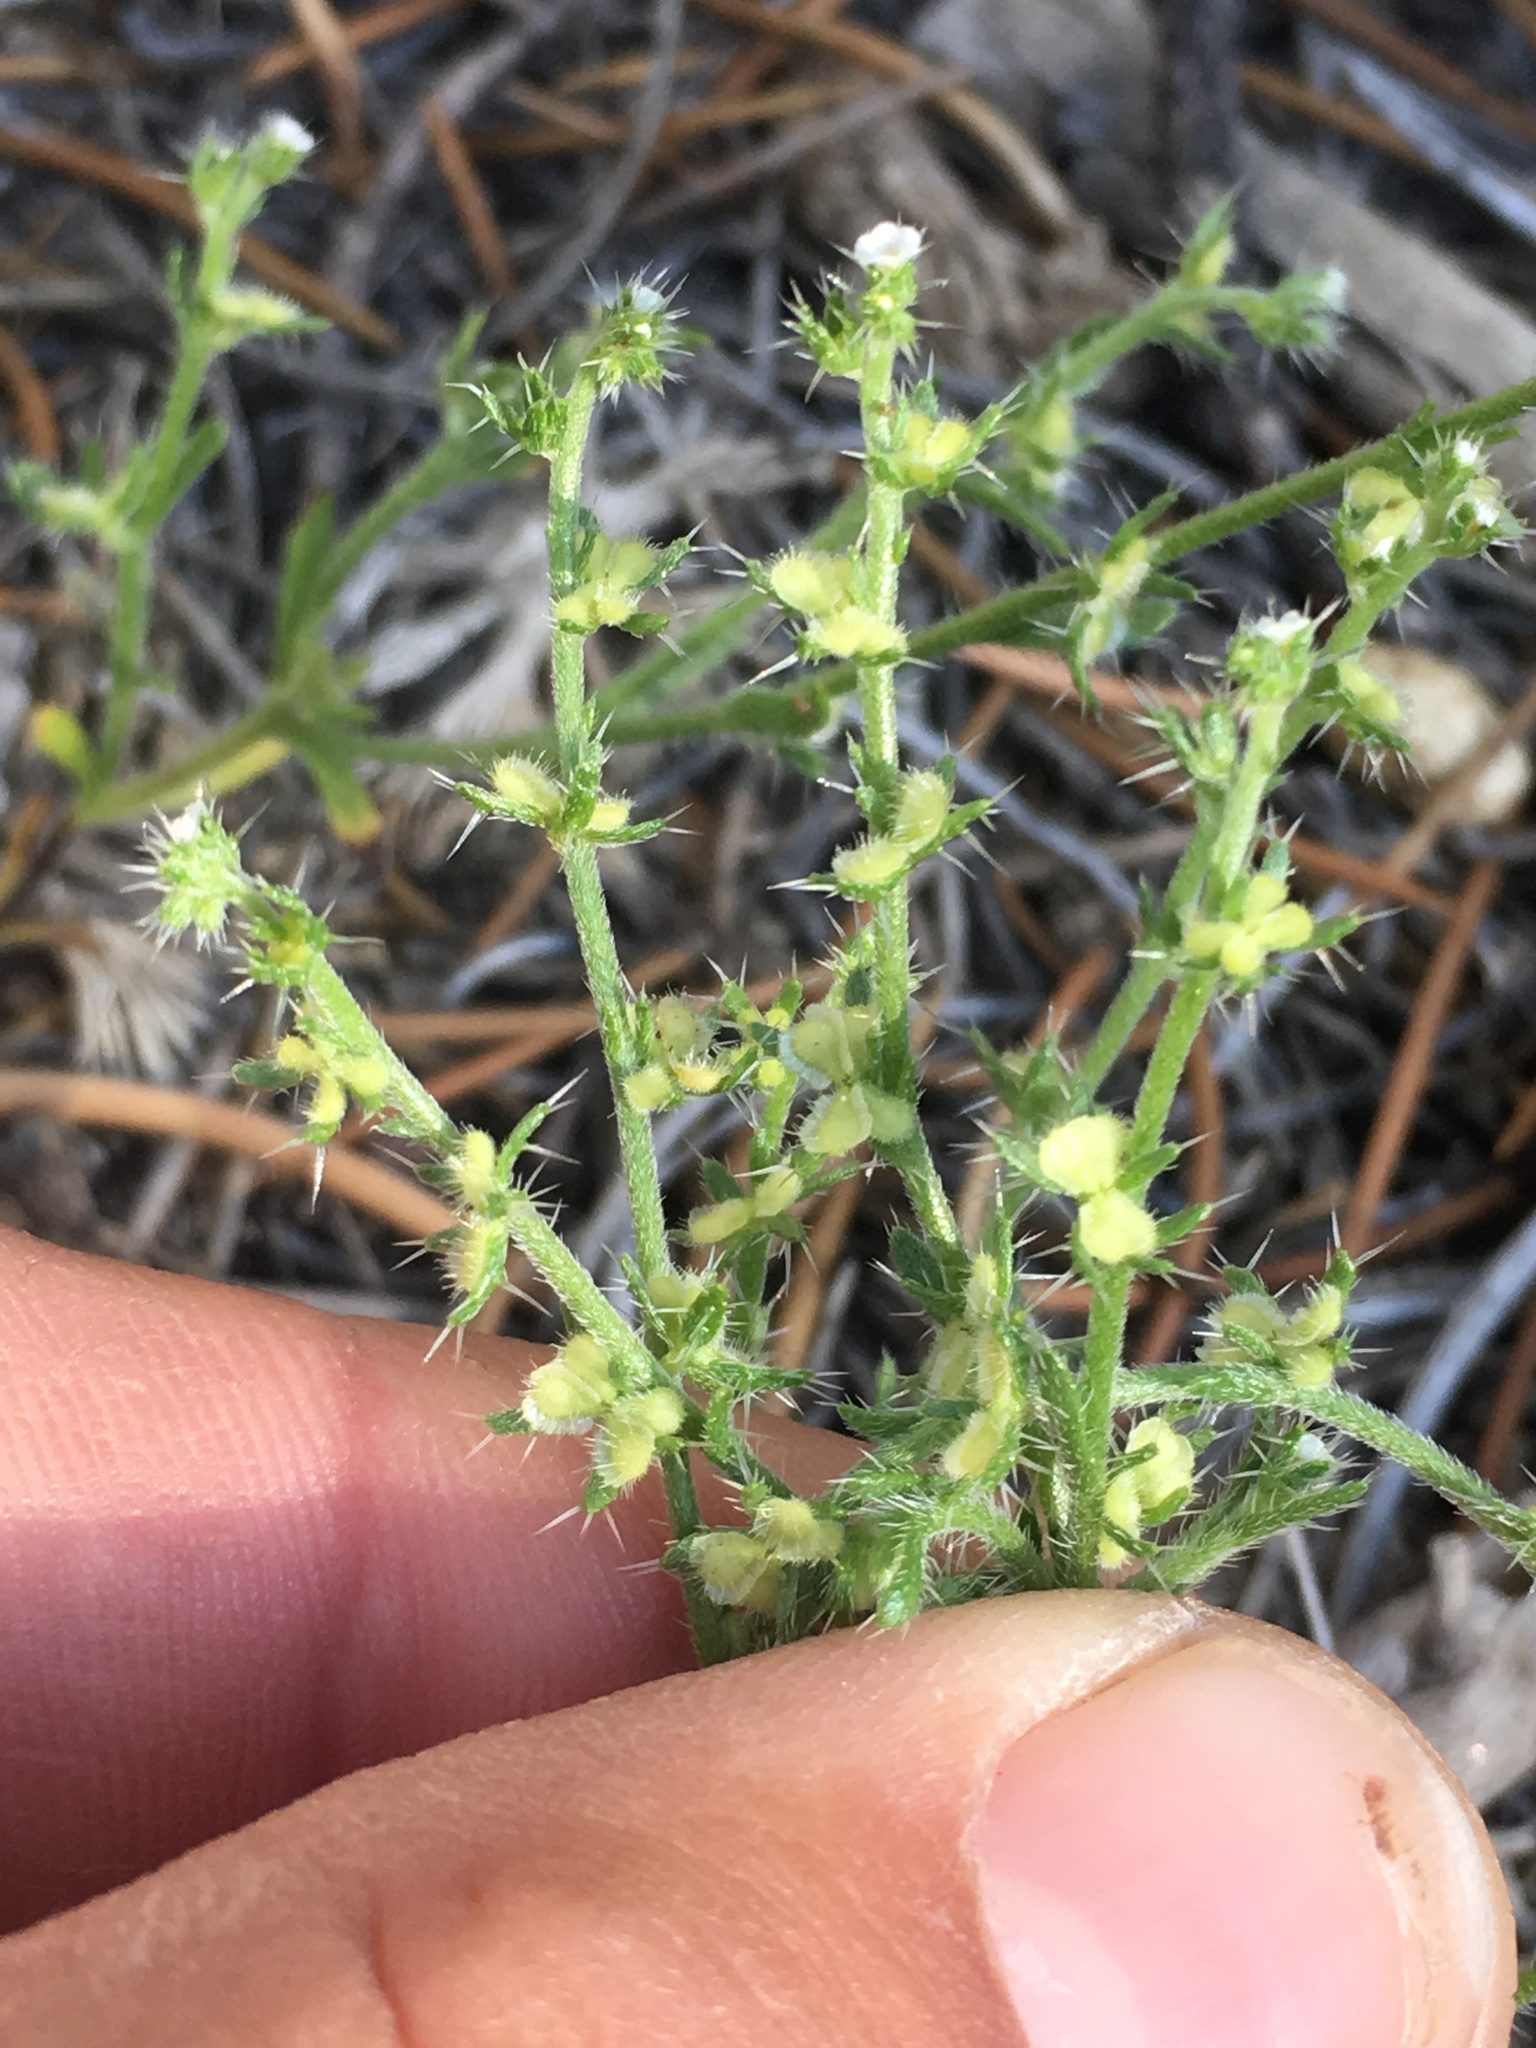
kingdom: Plantae
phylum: Tracheophyta
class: Magnoliopsida
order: Boraginales
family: Boraginaceae
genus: Pectocarya
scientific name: Pectocarya setosa
